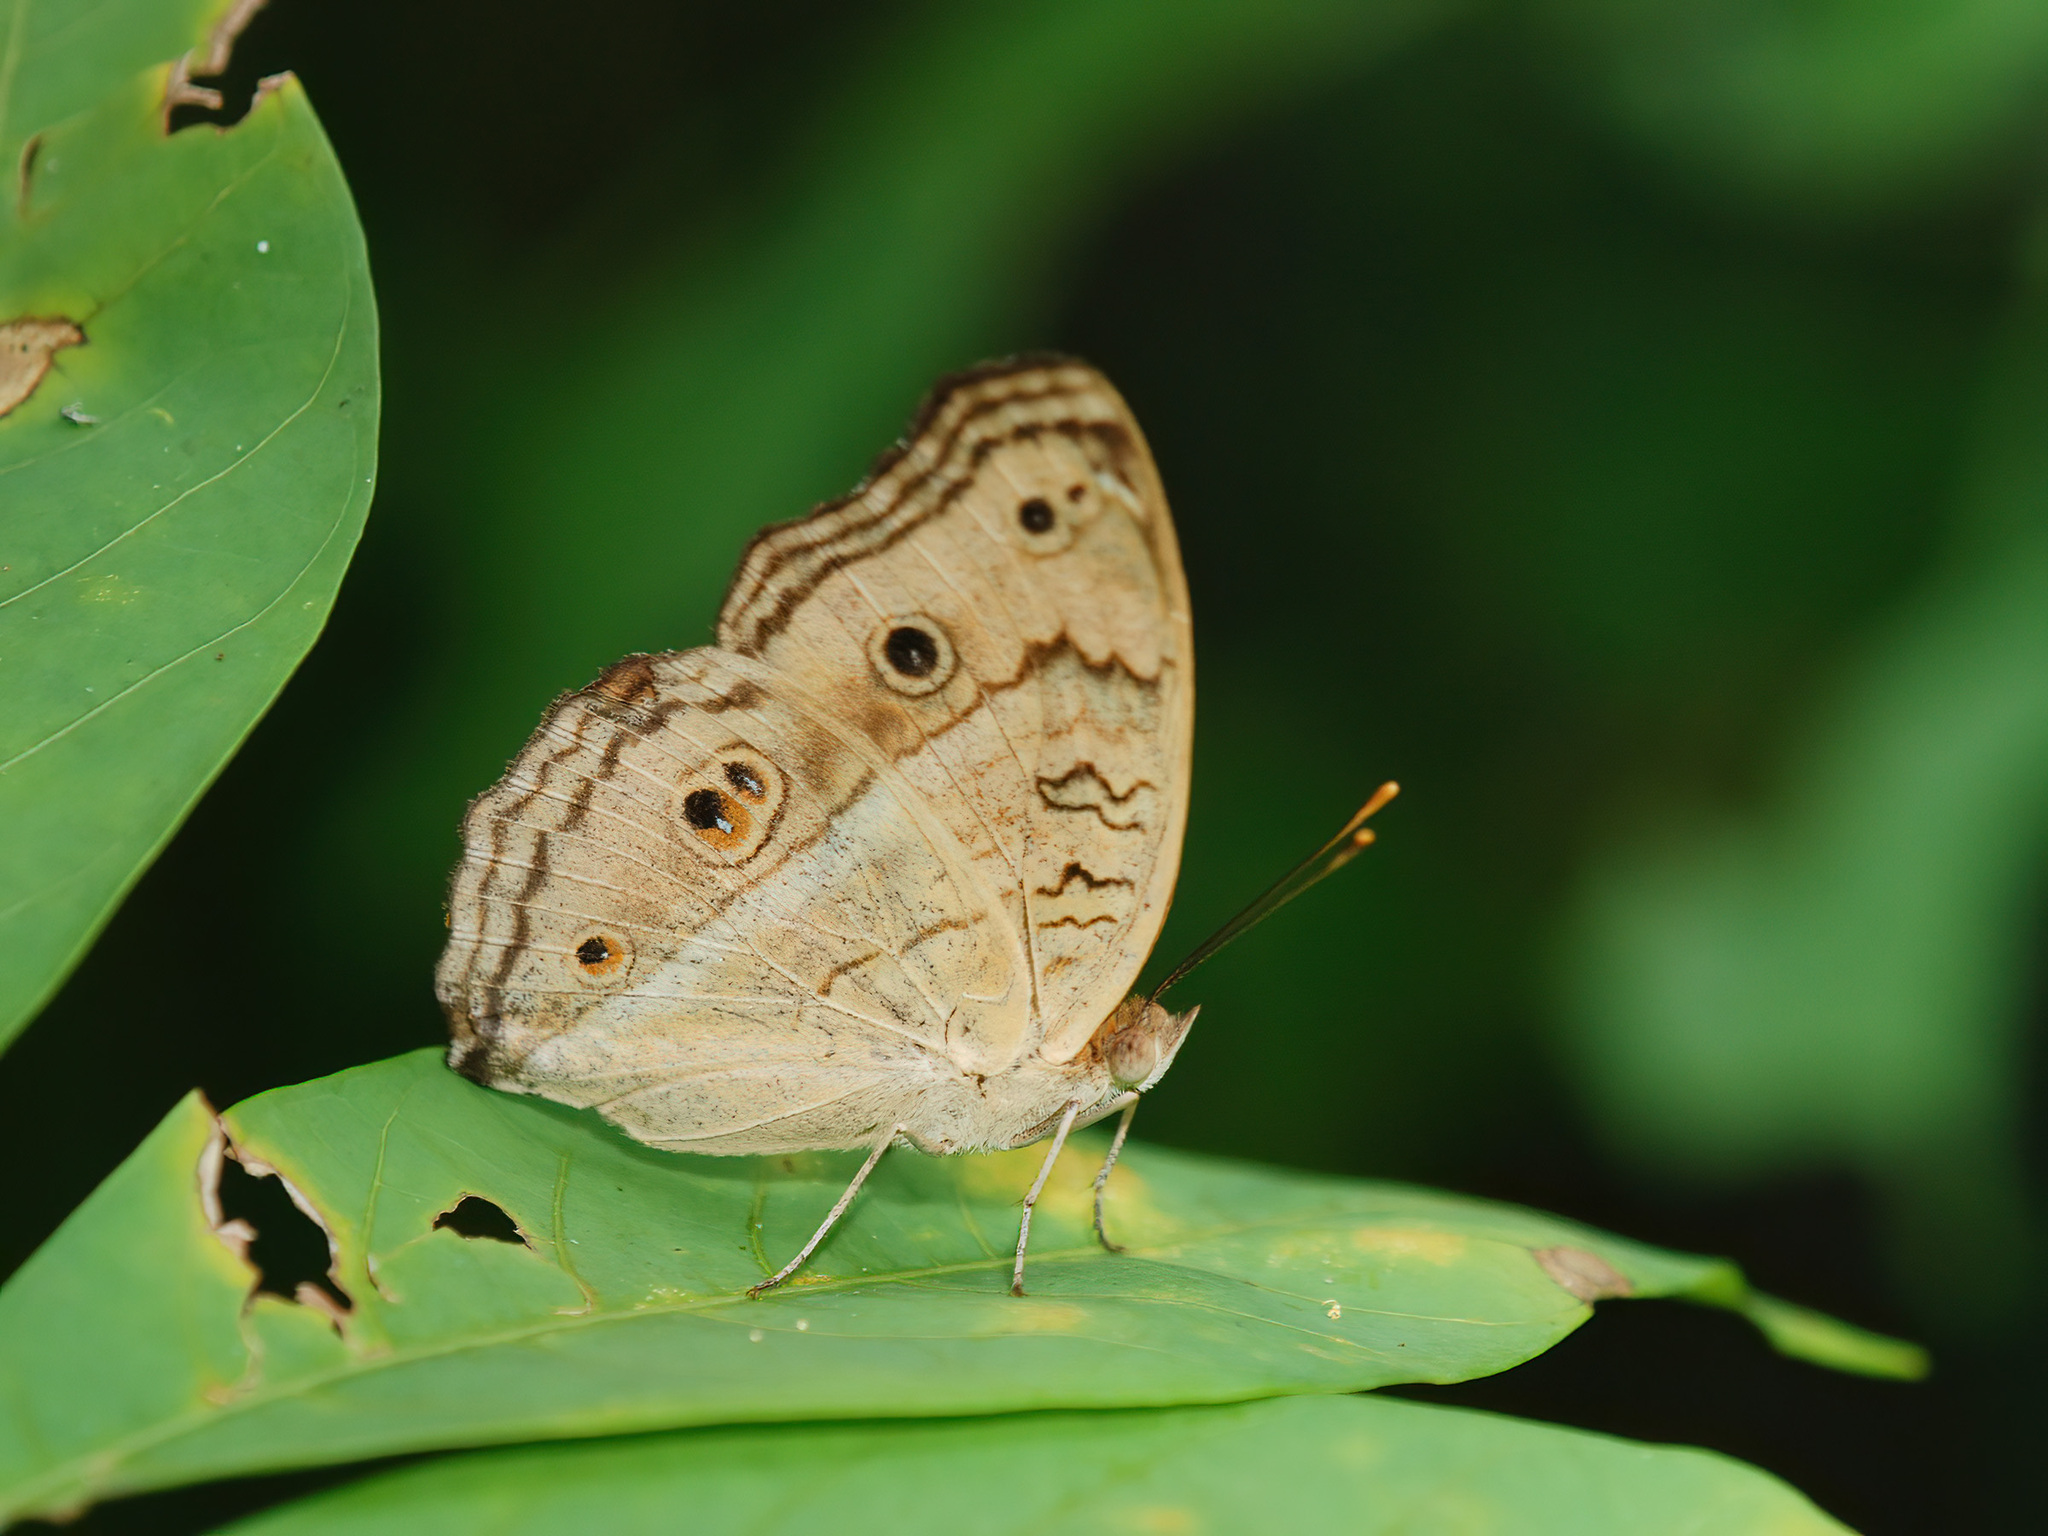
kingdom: Animalia
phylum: Arthropoda
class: Insecta
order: Lepidoptera
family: Nymphalidae
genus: Junonia
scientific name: Junonia almana
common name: Peacock pansy
